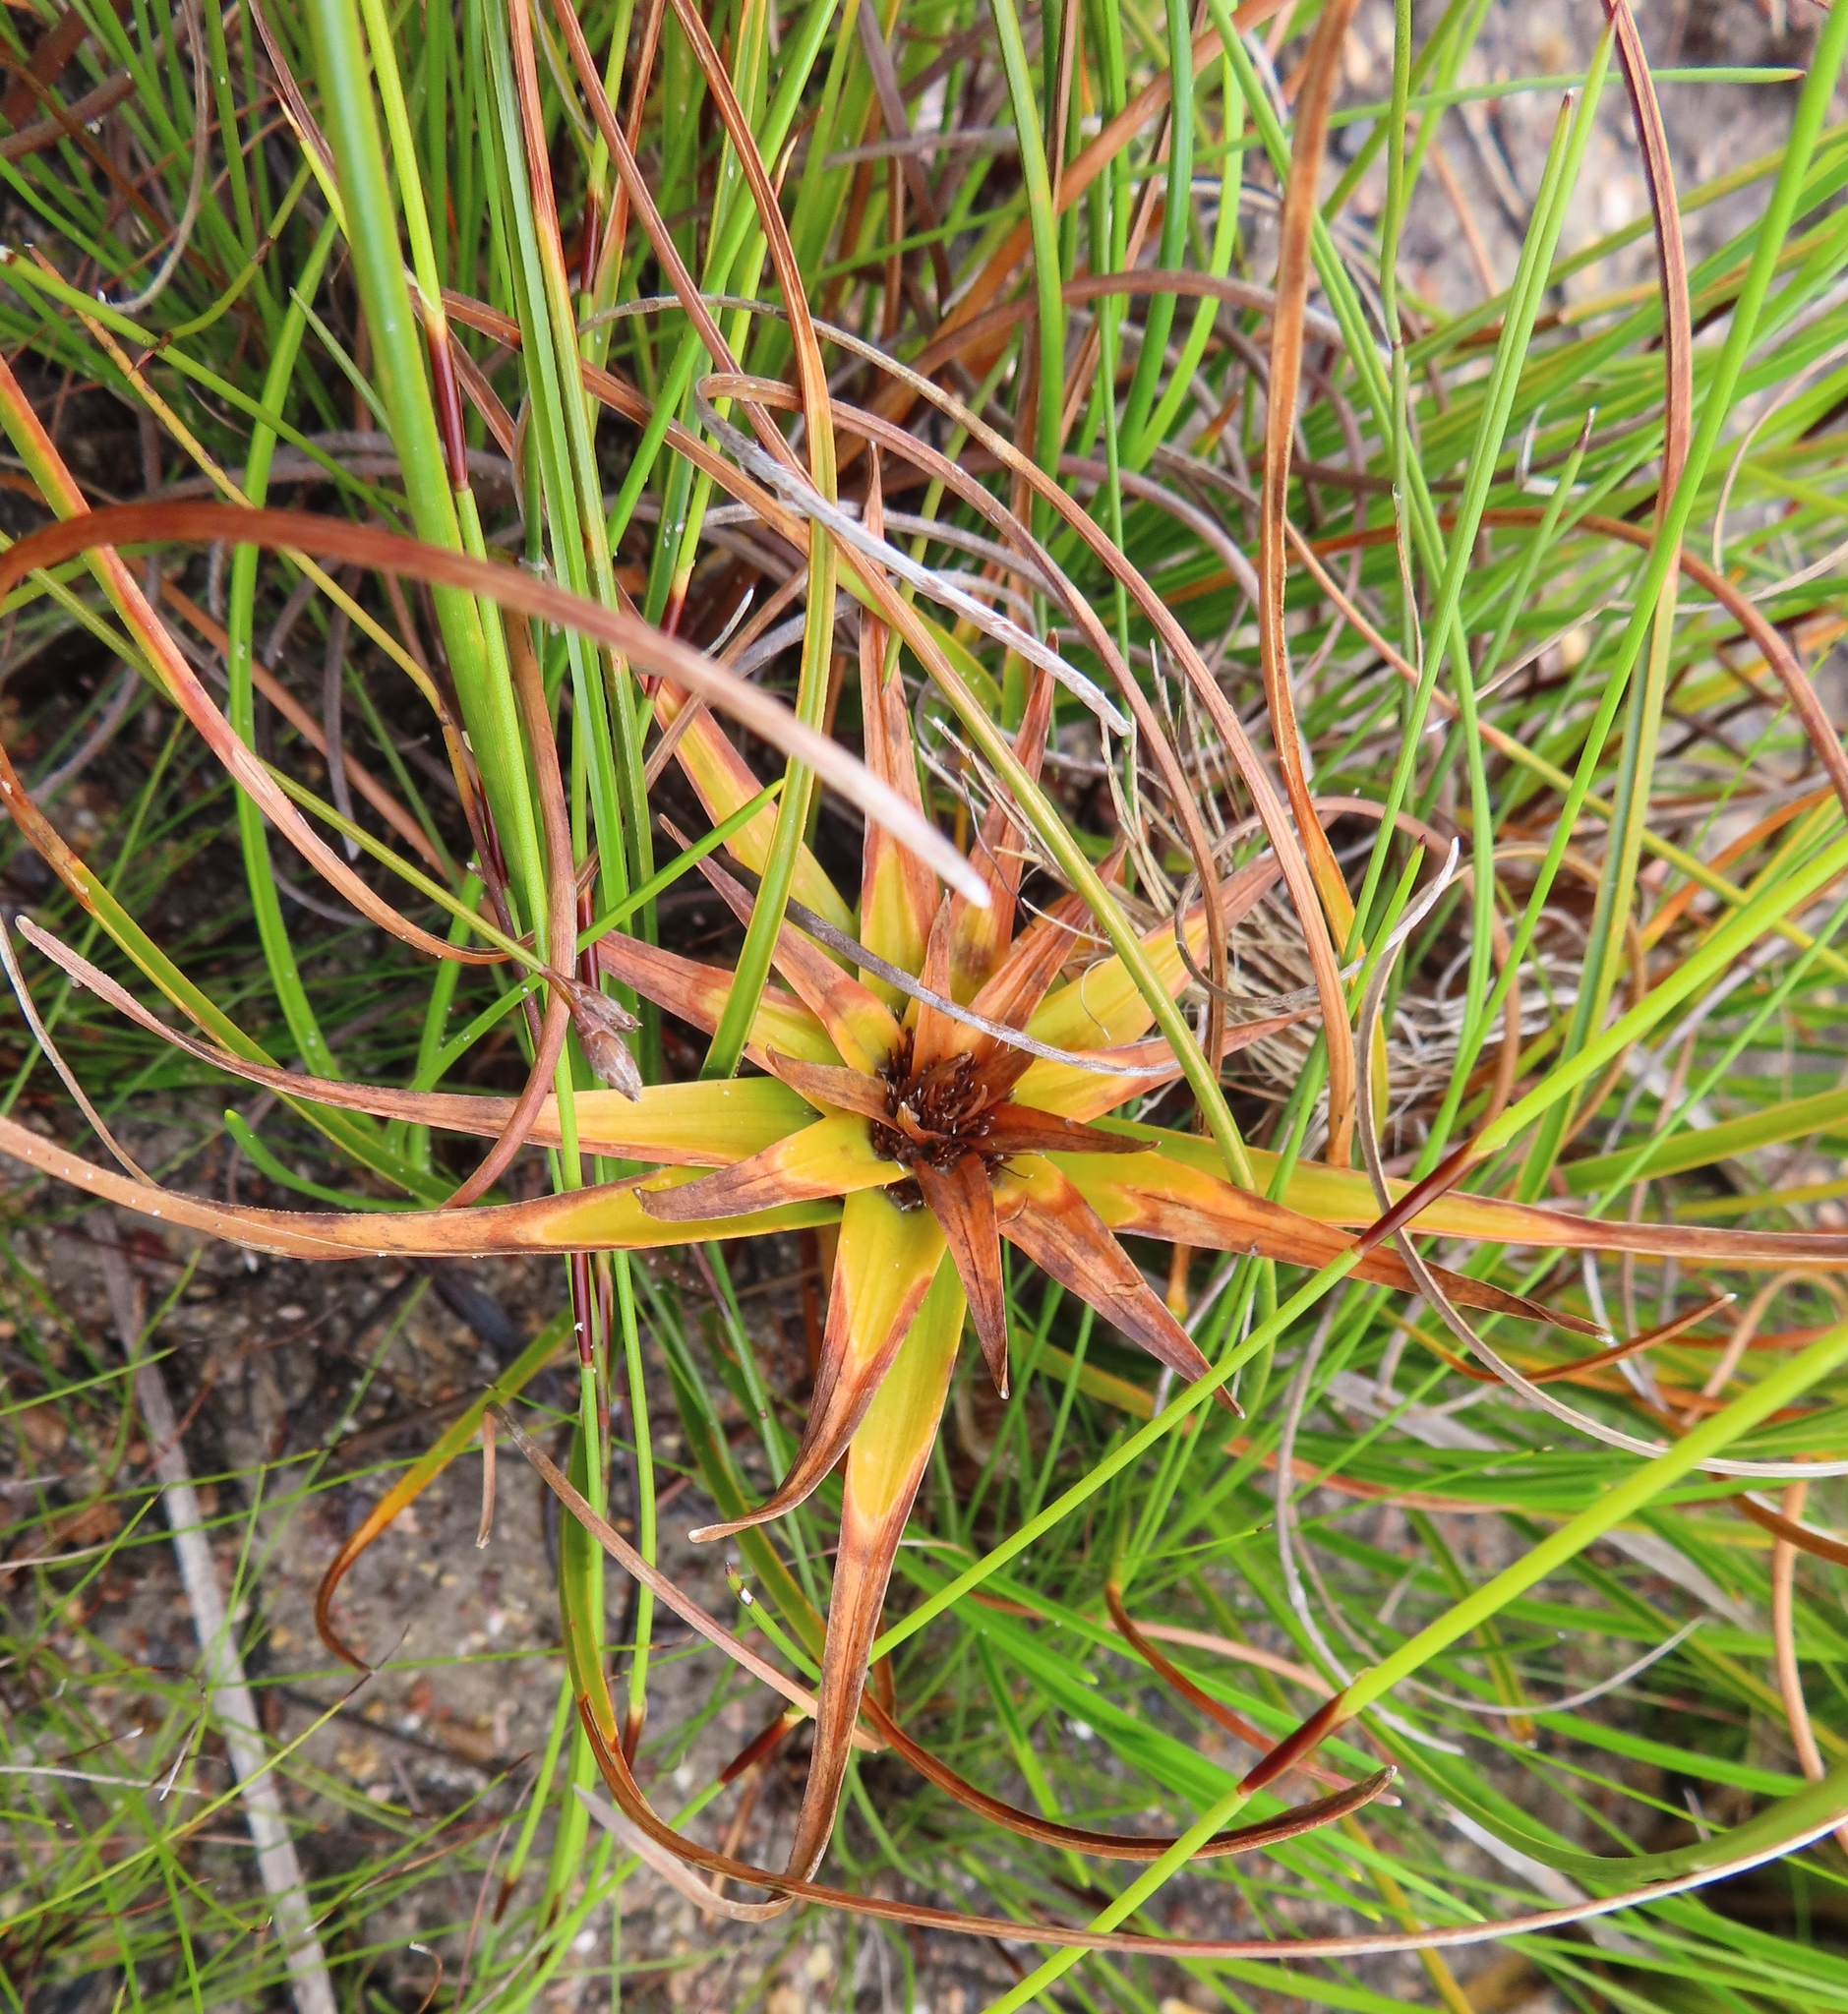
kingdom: Plantae
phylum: Tracheophyta
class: Liliopsida
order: Poales
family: Cyperaceae
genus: Ficinia
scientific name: Ficinia radiata
